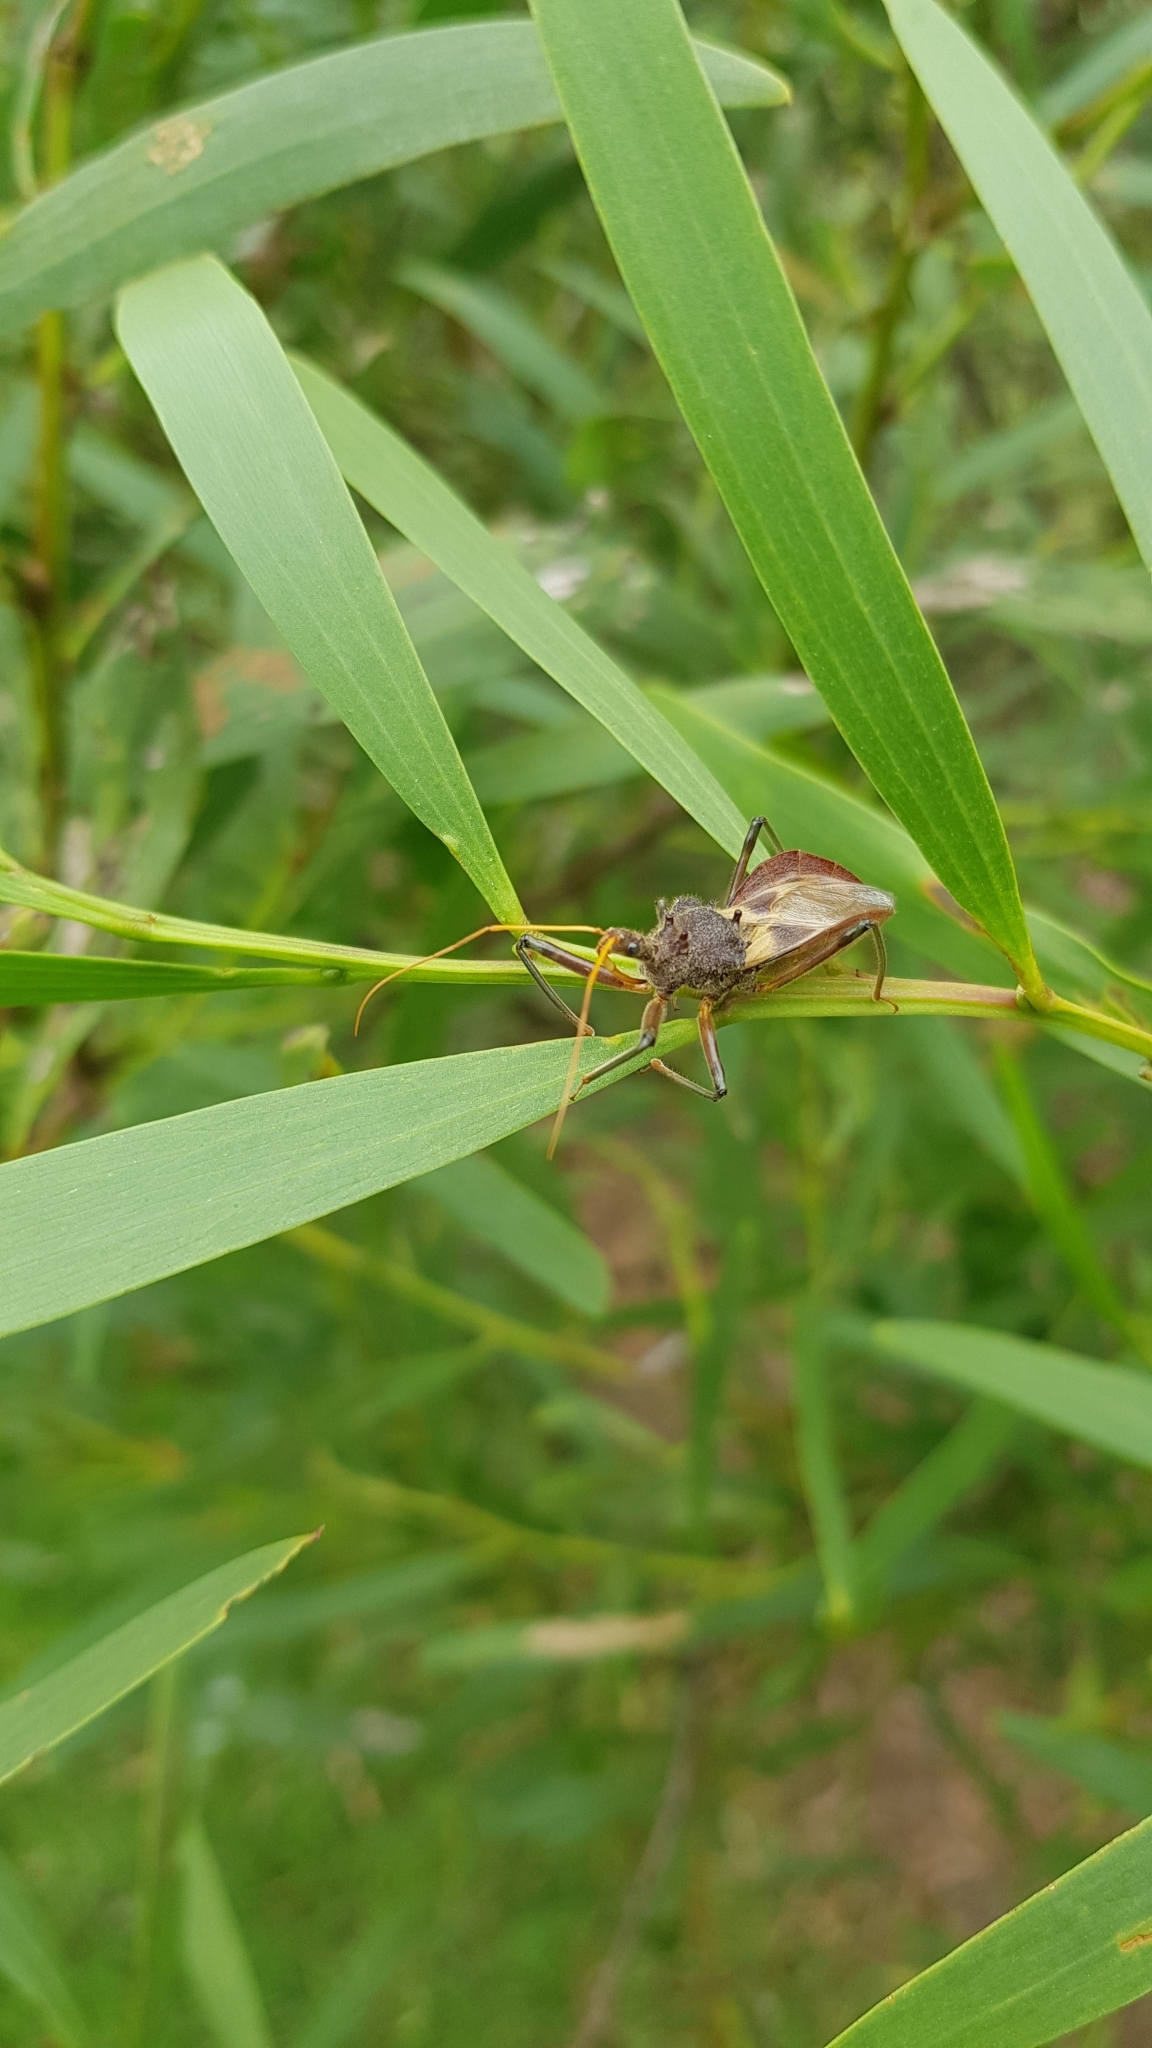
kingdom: Animalia
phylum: Arthropoda
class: Insecta
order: Hemiptera
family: Reduviidae
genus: Pristhesancus
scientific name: Pristhesancus plagipennis
